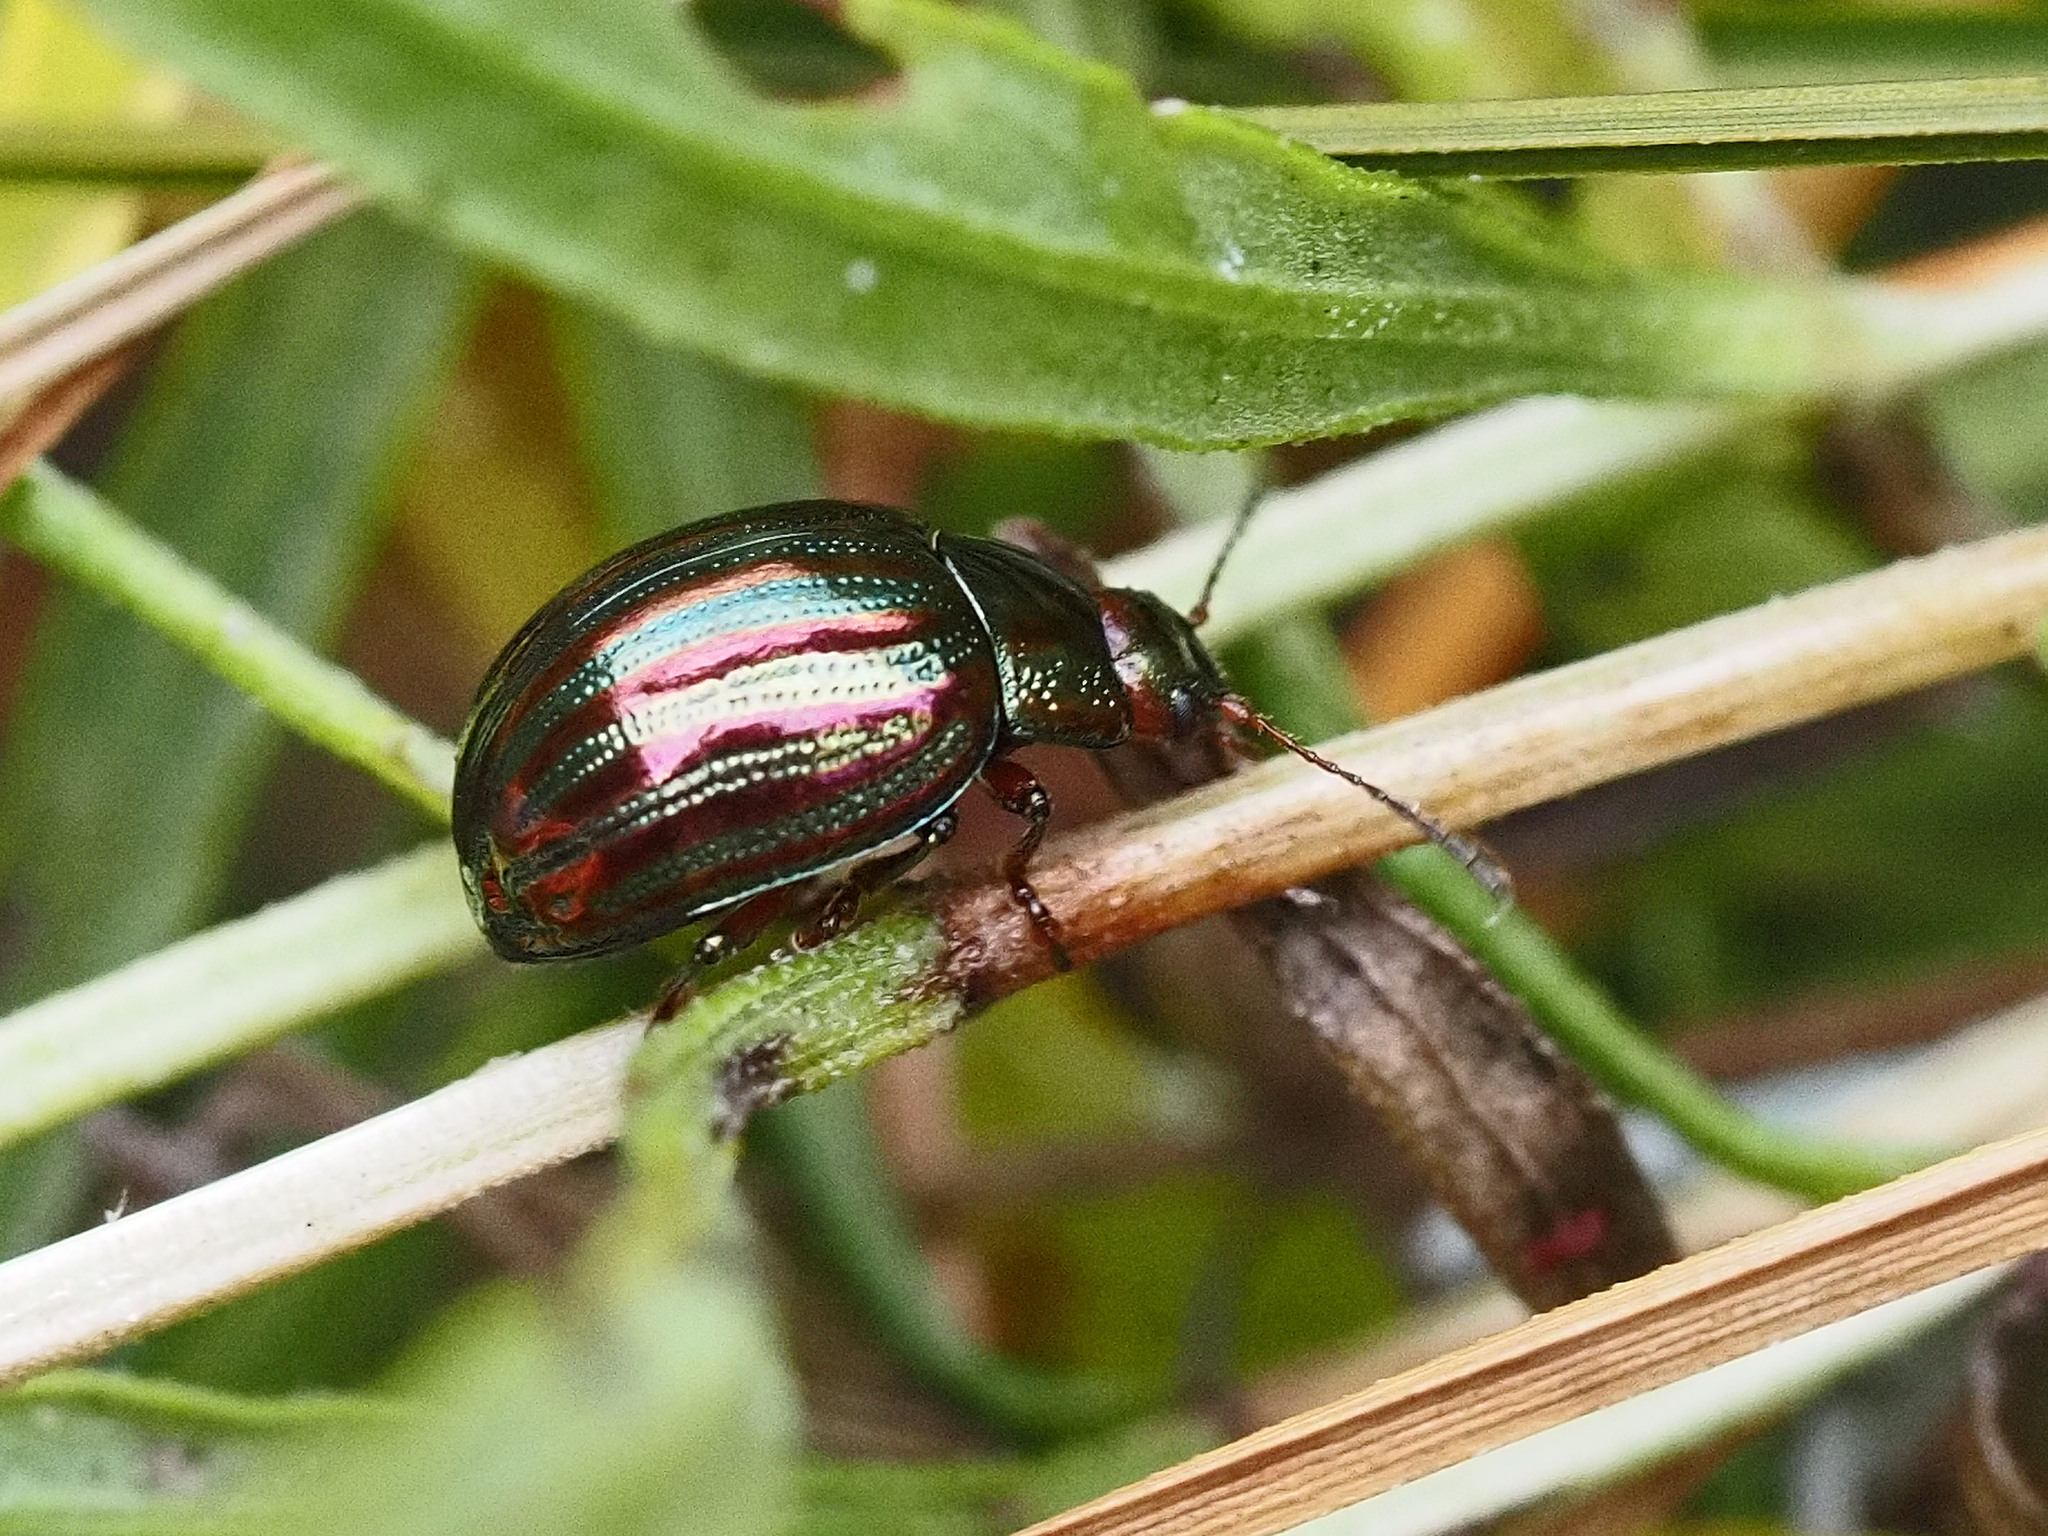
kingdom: Animalia
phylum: Arthropoda
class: Insecta
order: Coleoptera
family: Chrysomelidae
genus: Chrysolina
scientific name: Chrysolina americana
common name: Rosemary beetle
